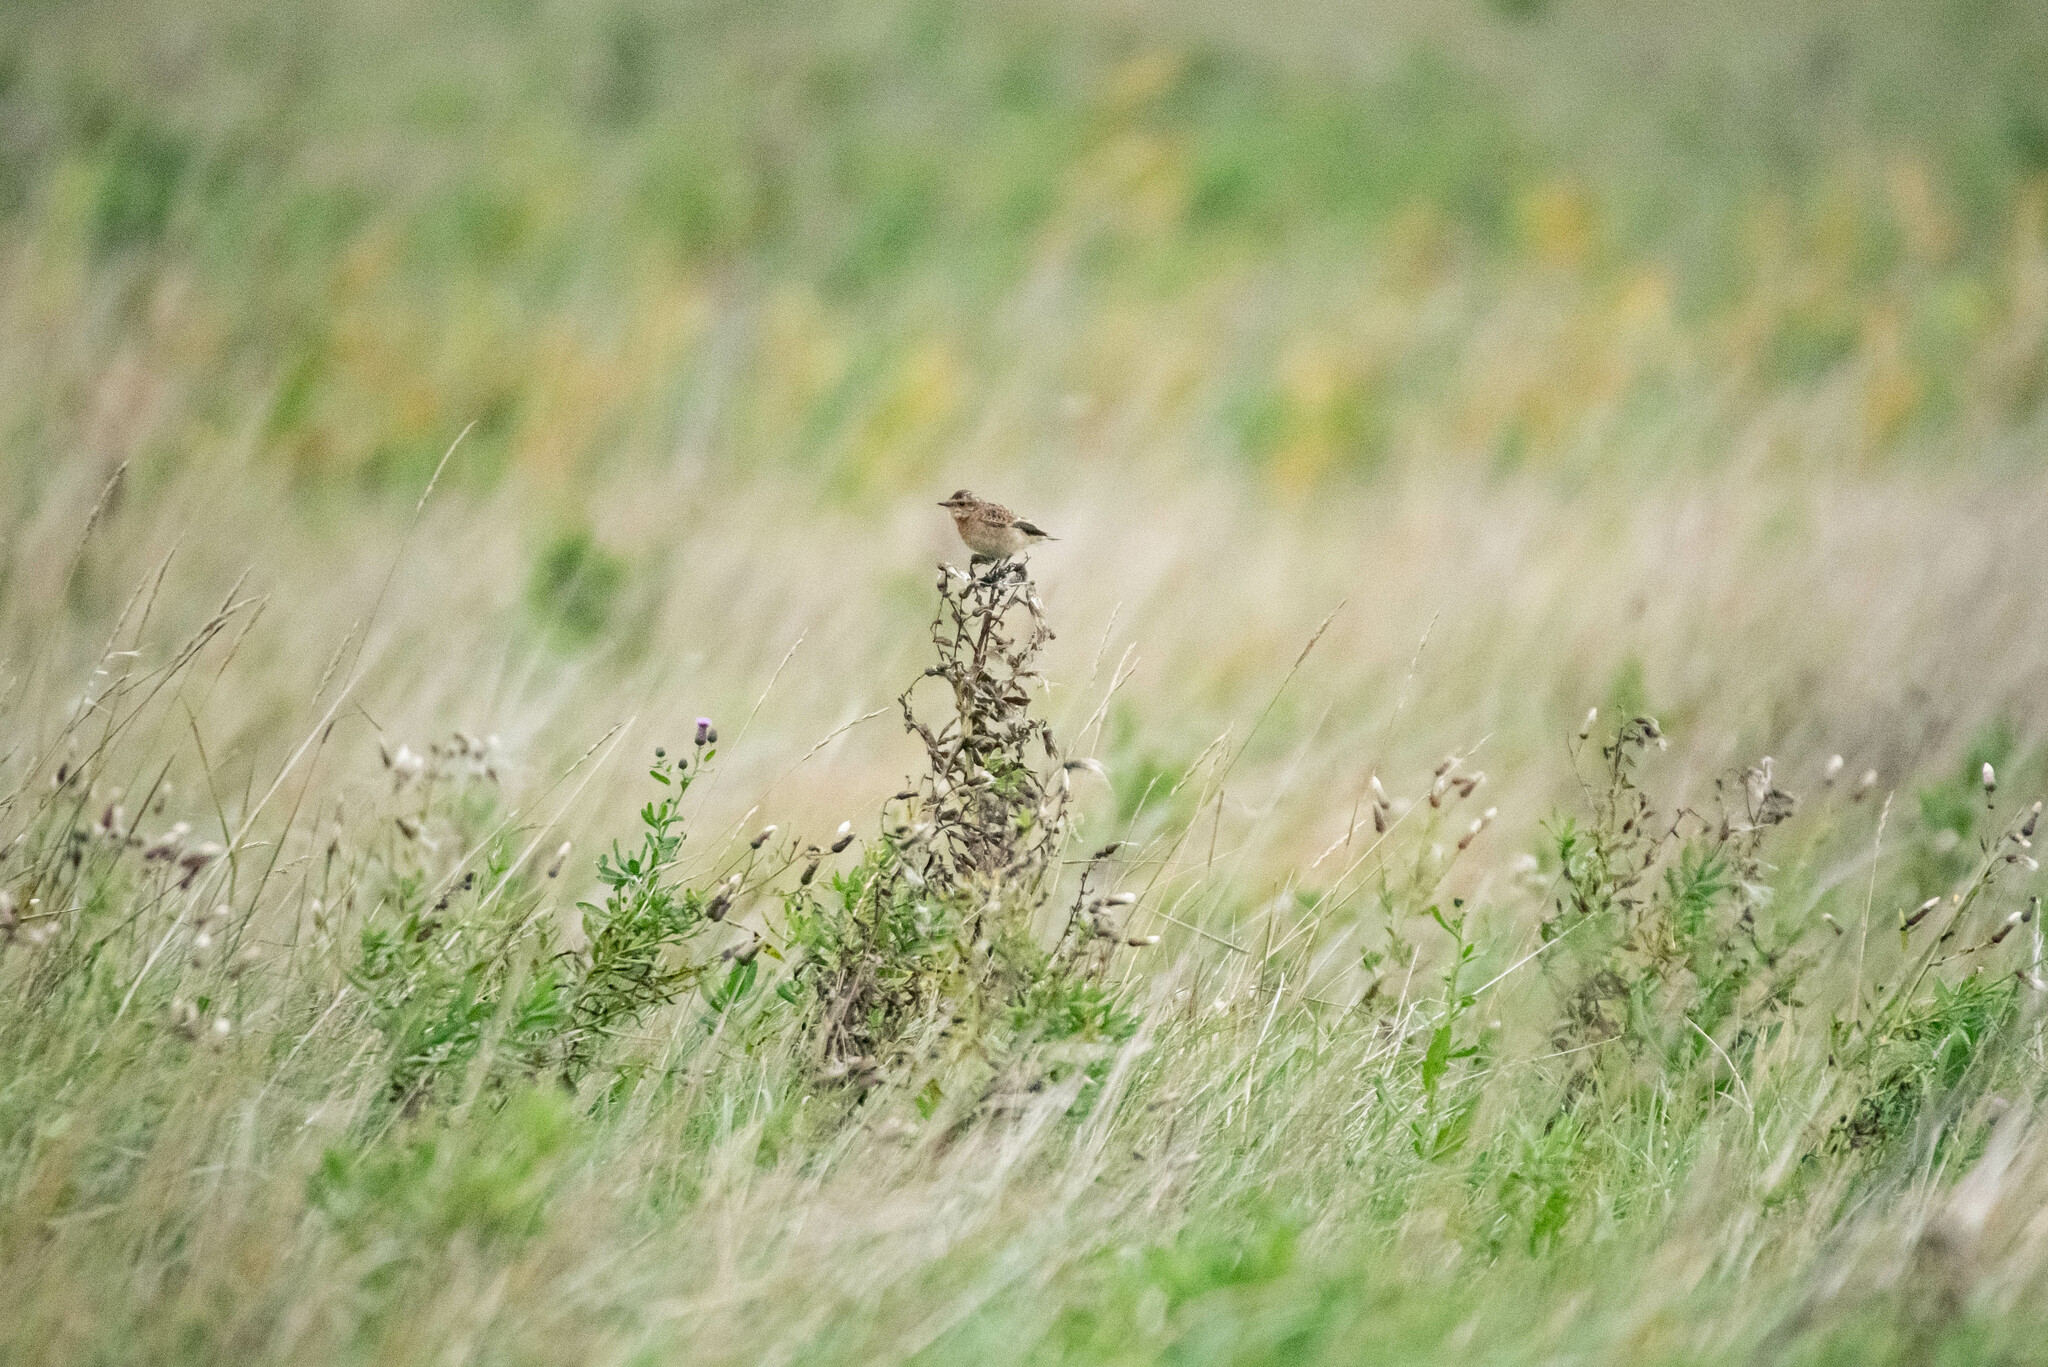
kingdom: Animalia
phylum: Chordata
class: Aves
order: Passeriformes
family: Muscicapidae
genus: Saxicola
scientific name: Saxicola rubetra
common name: Whinchat
